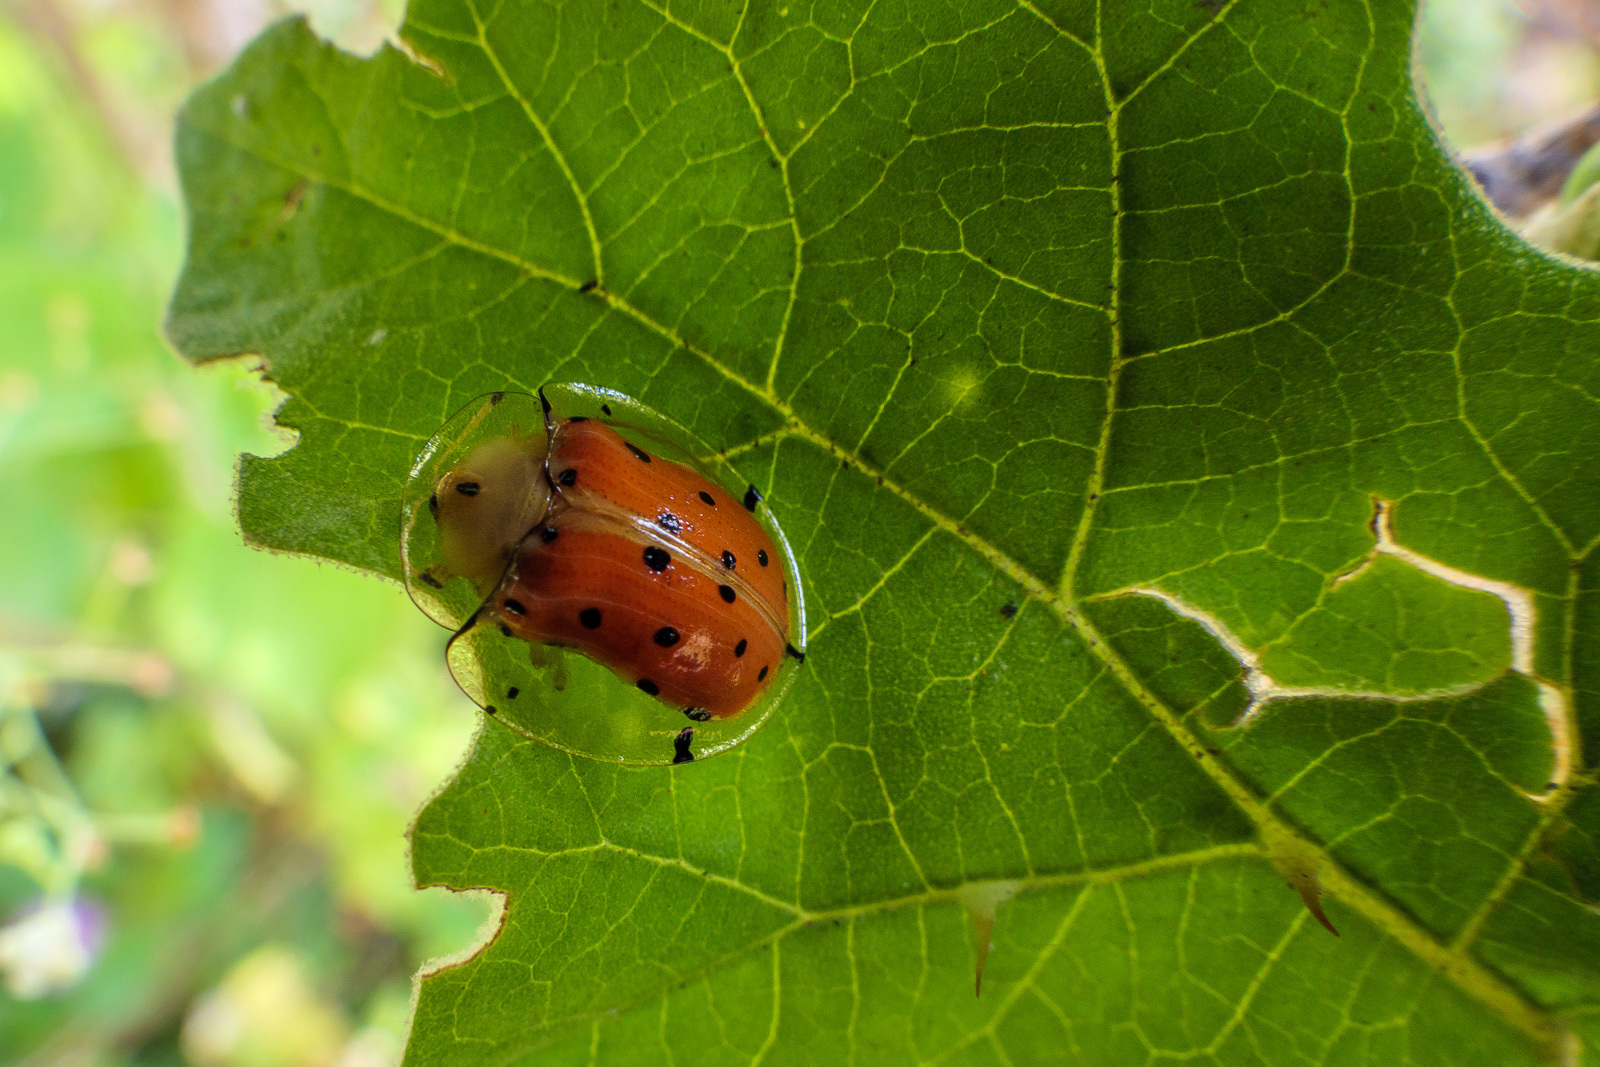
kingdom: Animalia
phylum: Arthropoda
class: Insecta
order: Coleoptera
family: Chrysomelidae
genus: Aspidimorpha
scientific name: Aspidimorpha miliaris
